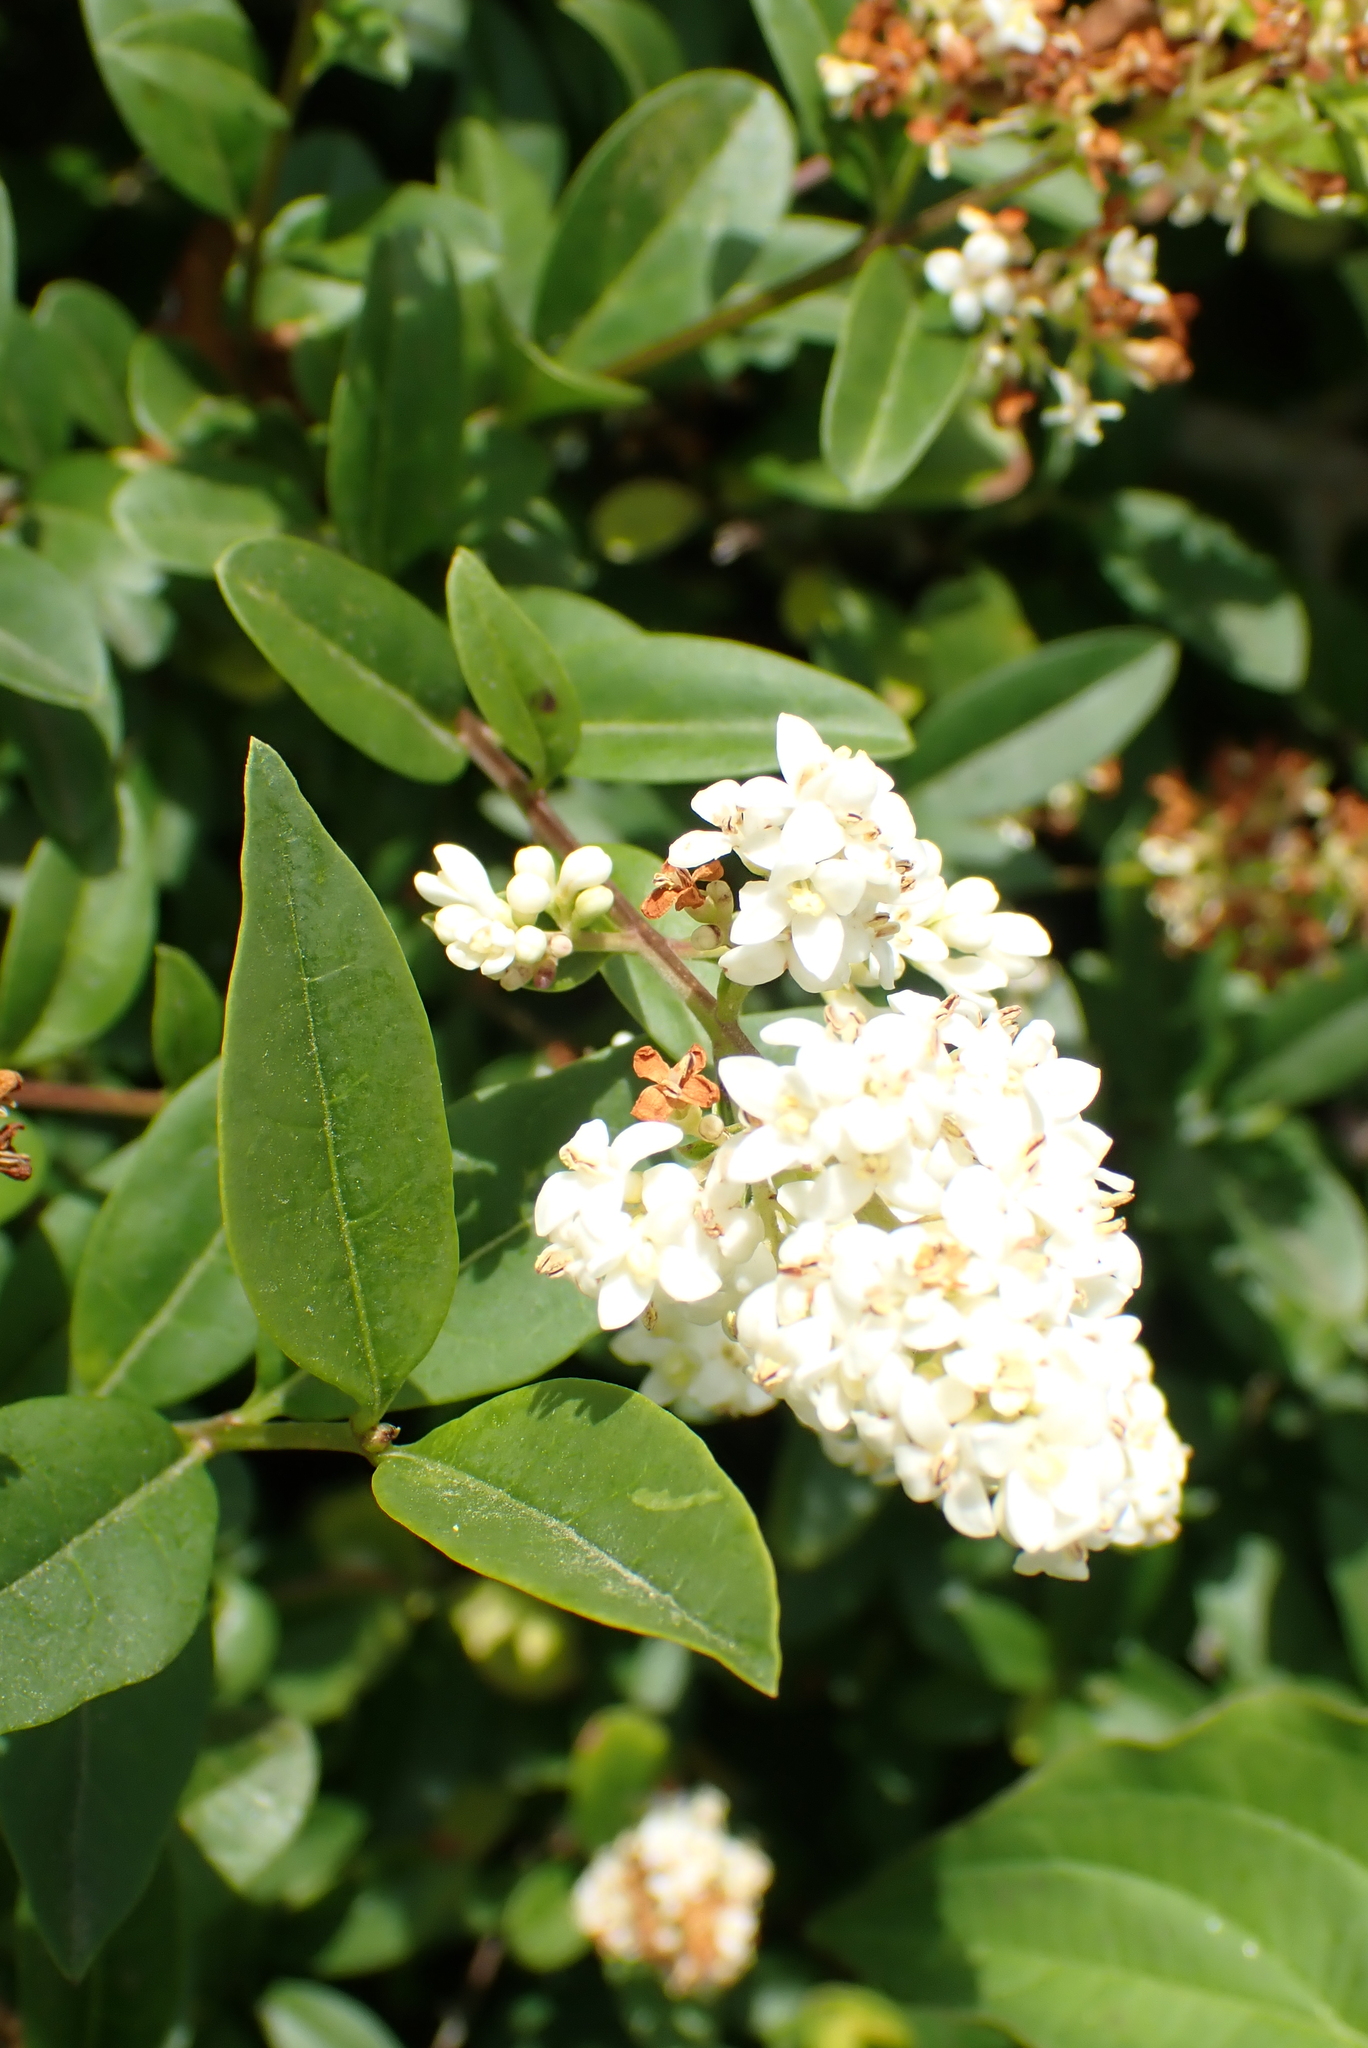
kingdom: Plantae
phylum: Tracheophyta
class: Magnoliopsida
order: Lamiales
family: Oleaceae
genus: Ligustrum
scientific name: Ligustrum vulgare
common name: Wild privet
